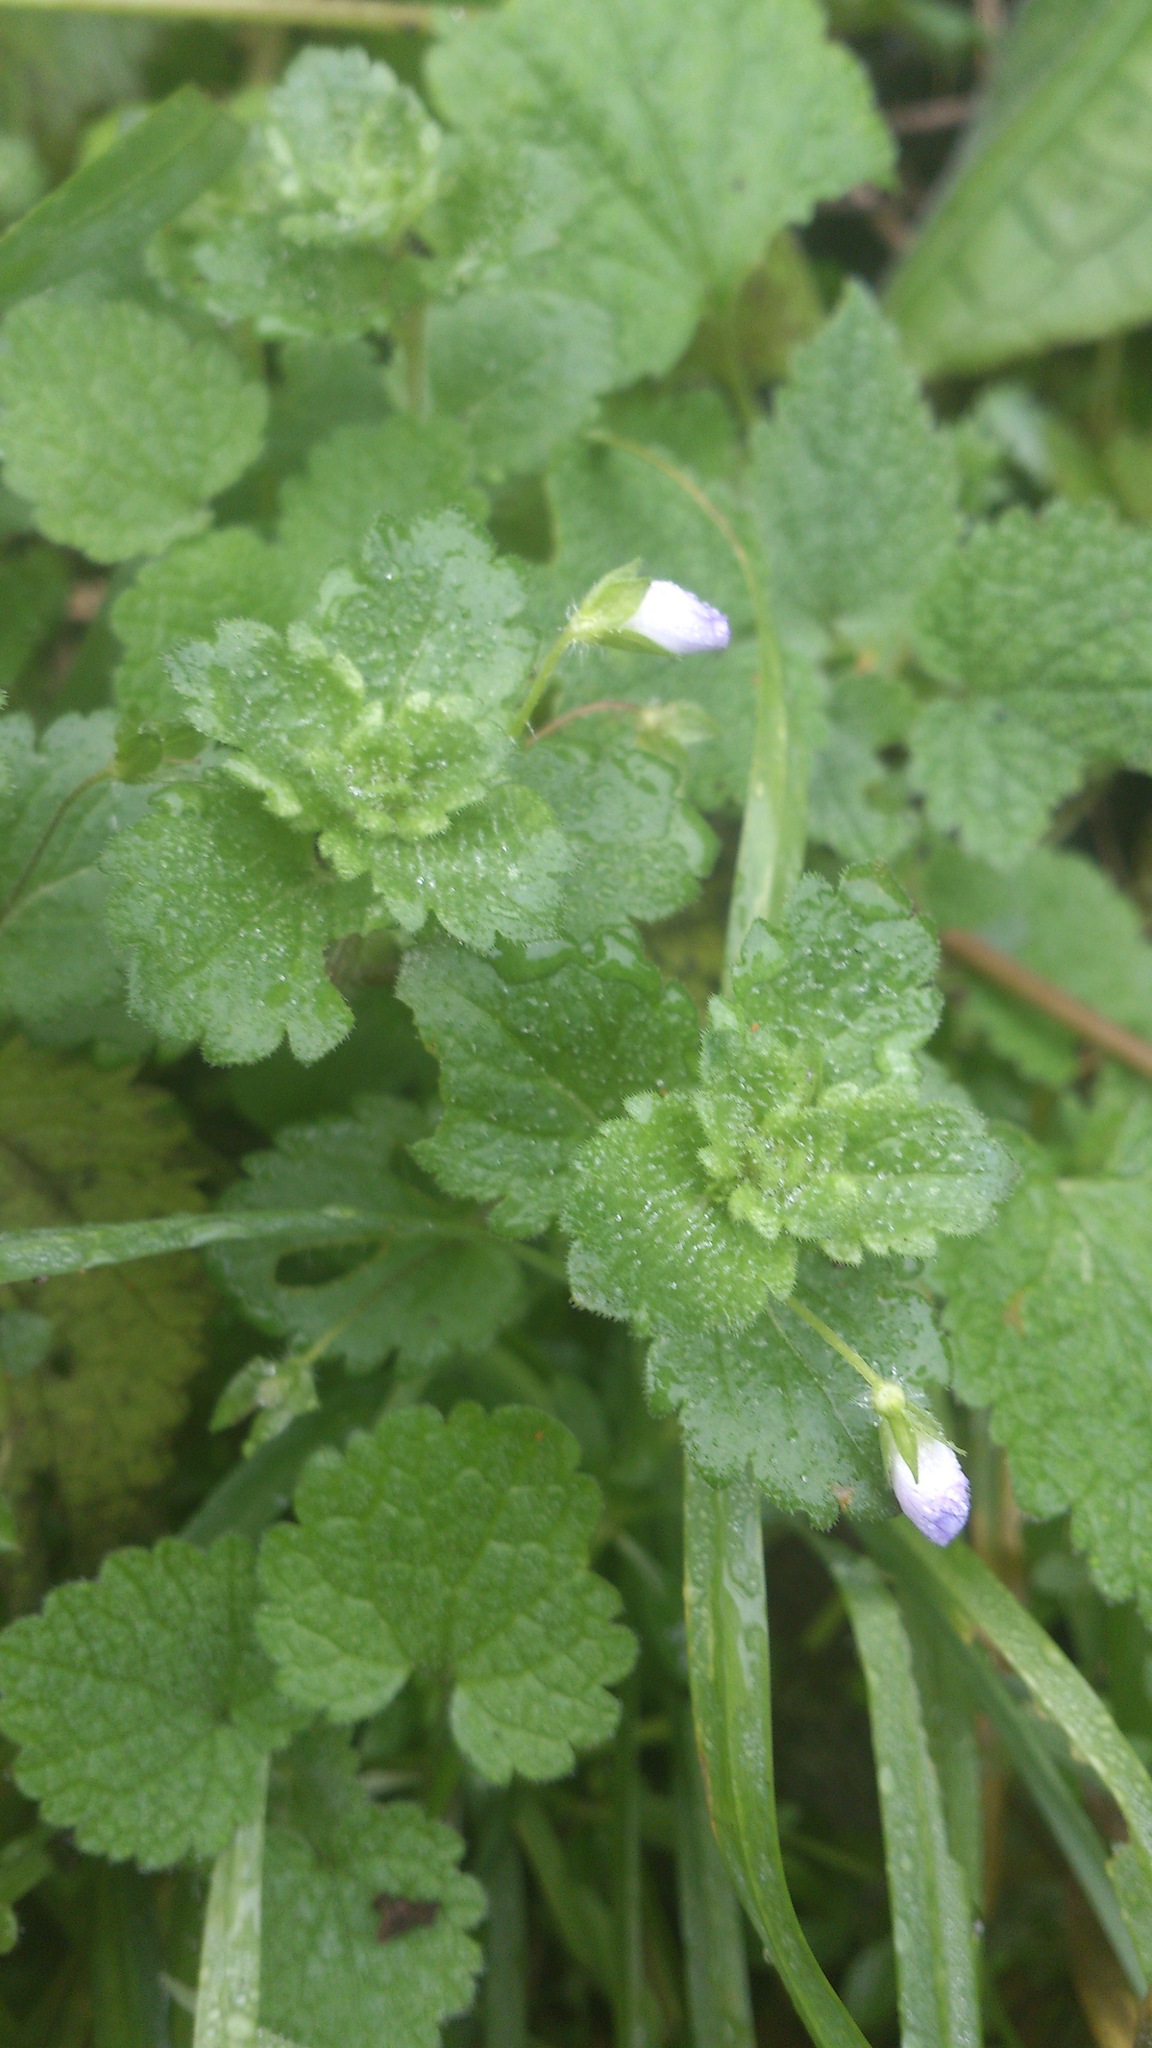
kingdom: Plantae
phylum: Tracheophyta
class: Magnoliopsida
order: Lamiales
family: Plantaginaceae
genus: Veronica
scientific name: Veronica persica
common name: Common field-speedwell
